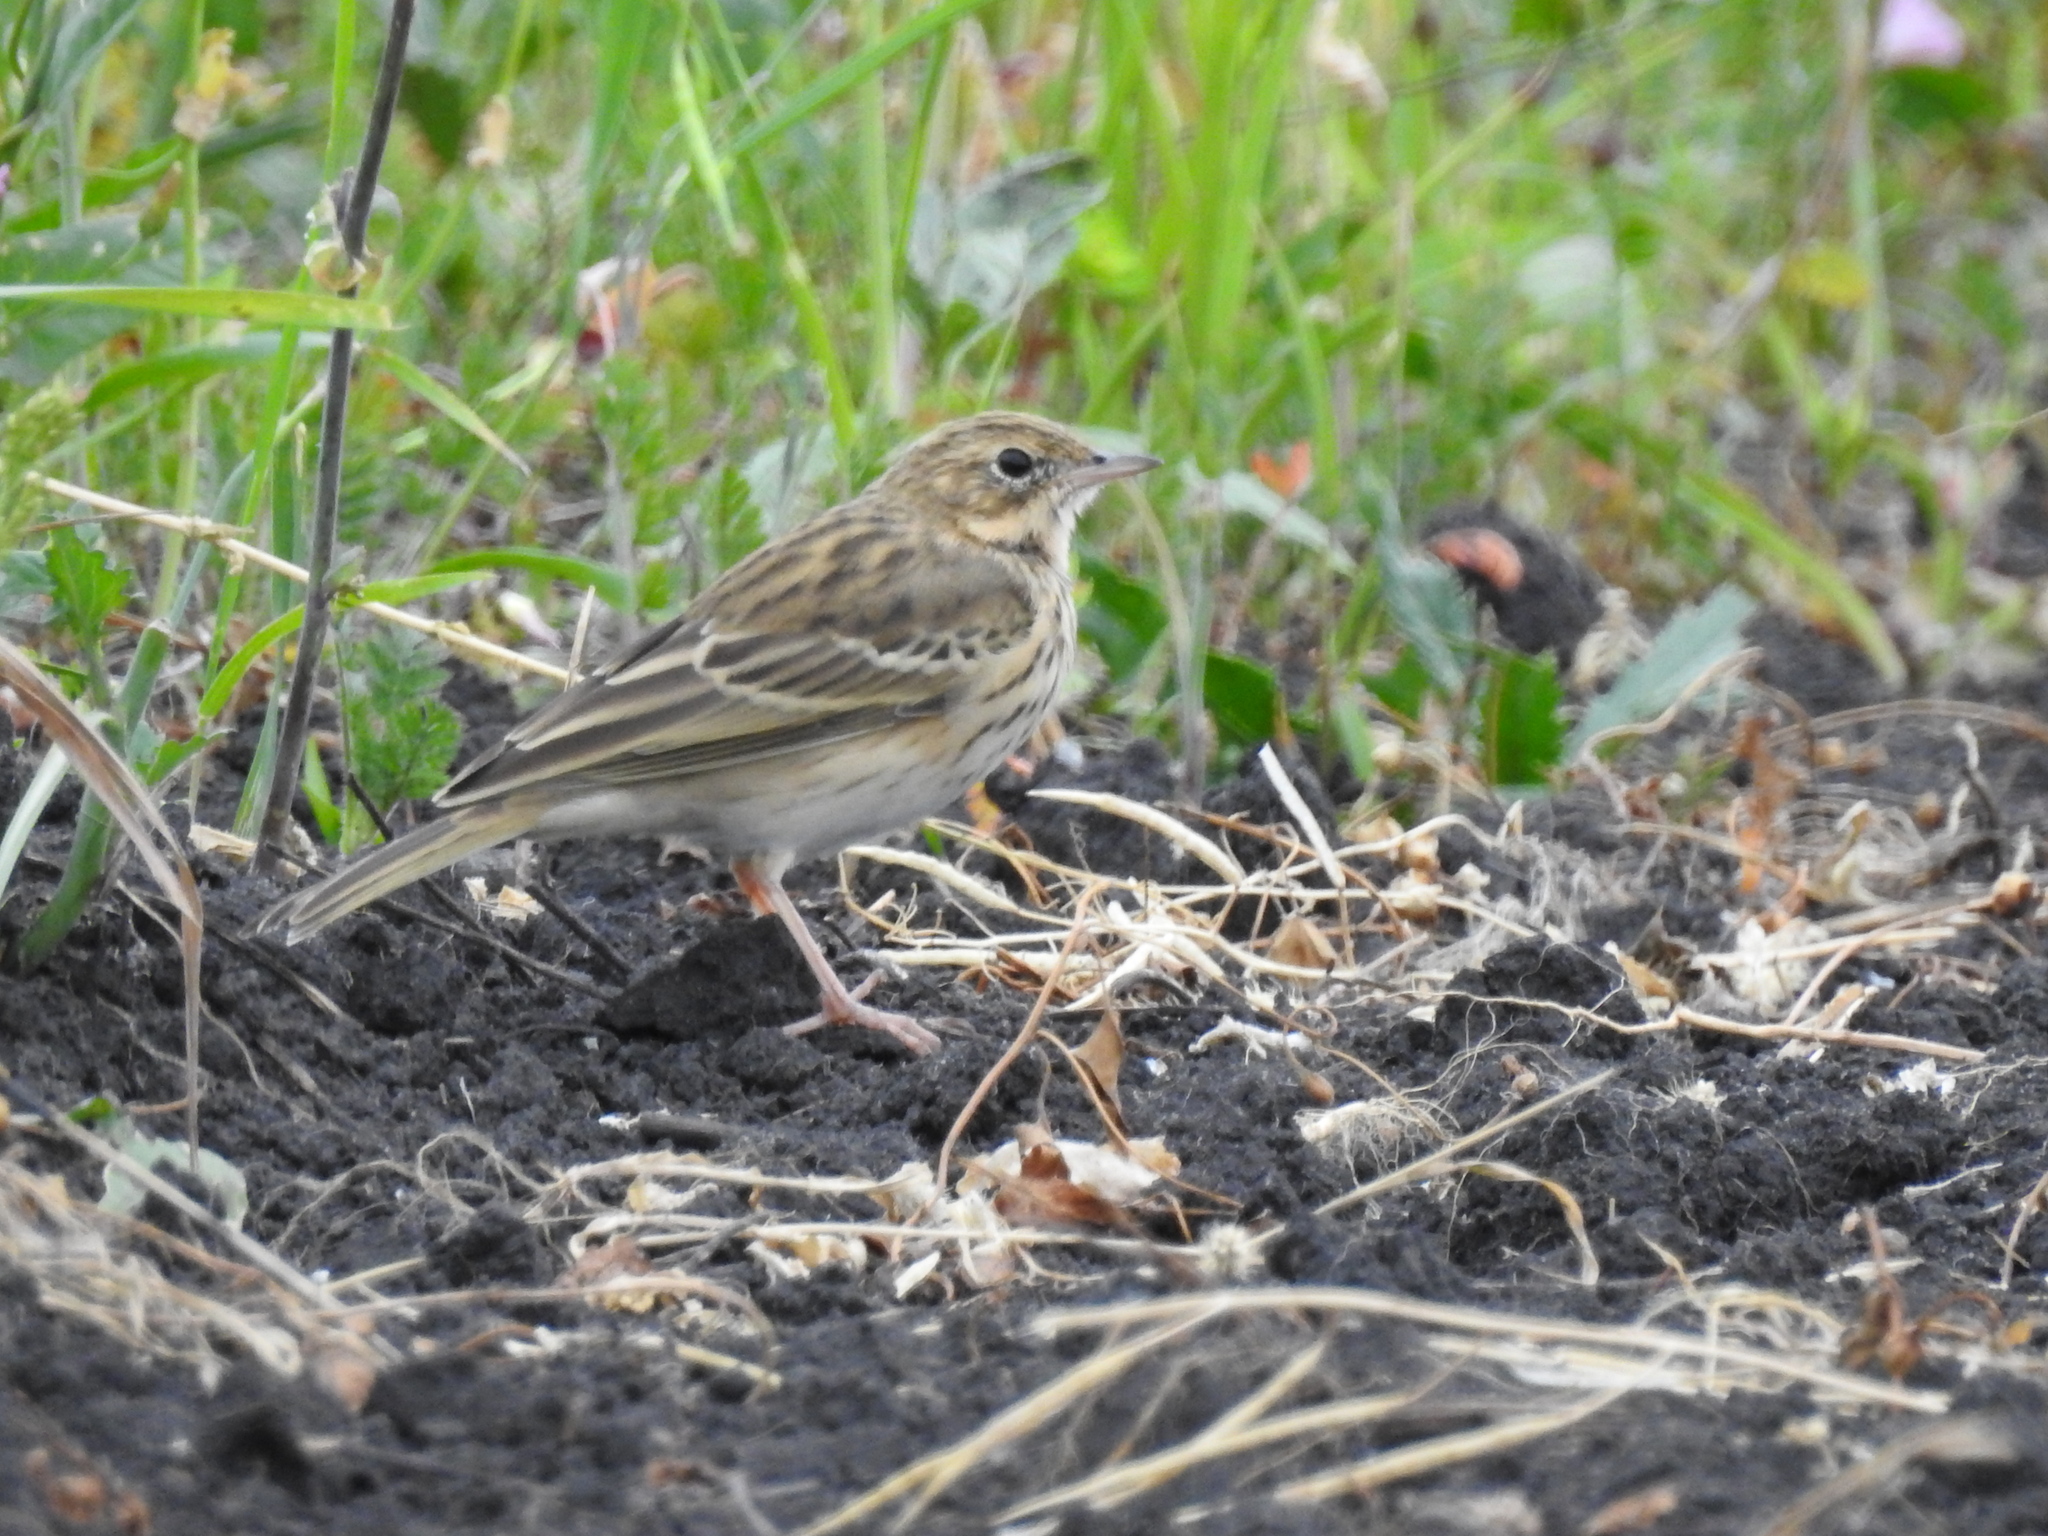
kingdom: Animalia
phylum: Chordata
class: Aves
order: Passeriformes
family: Motacillidae
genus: Anthus
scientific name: Anthus trivialis
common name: Tree pipit
